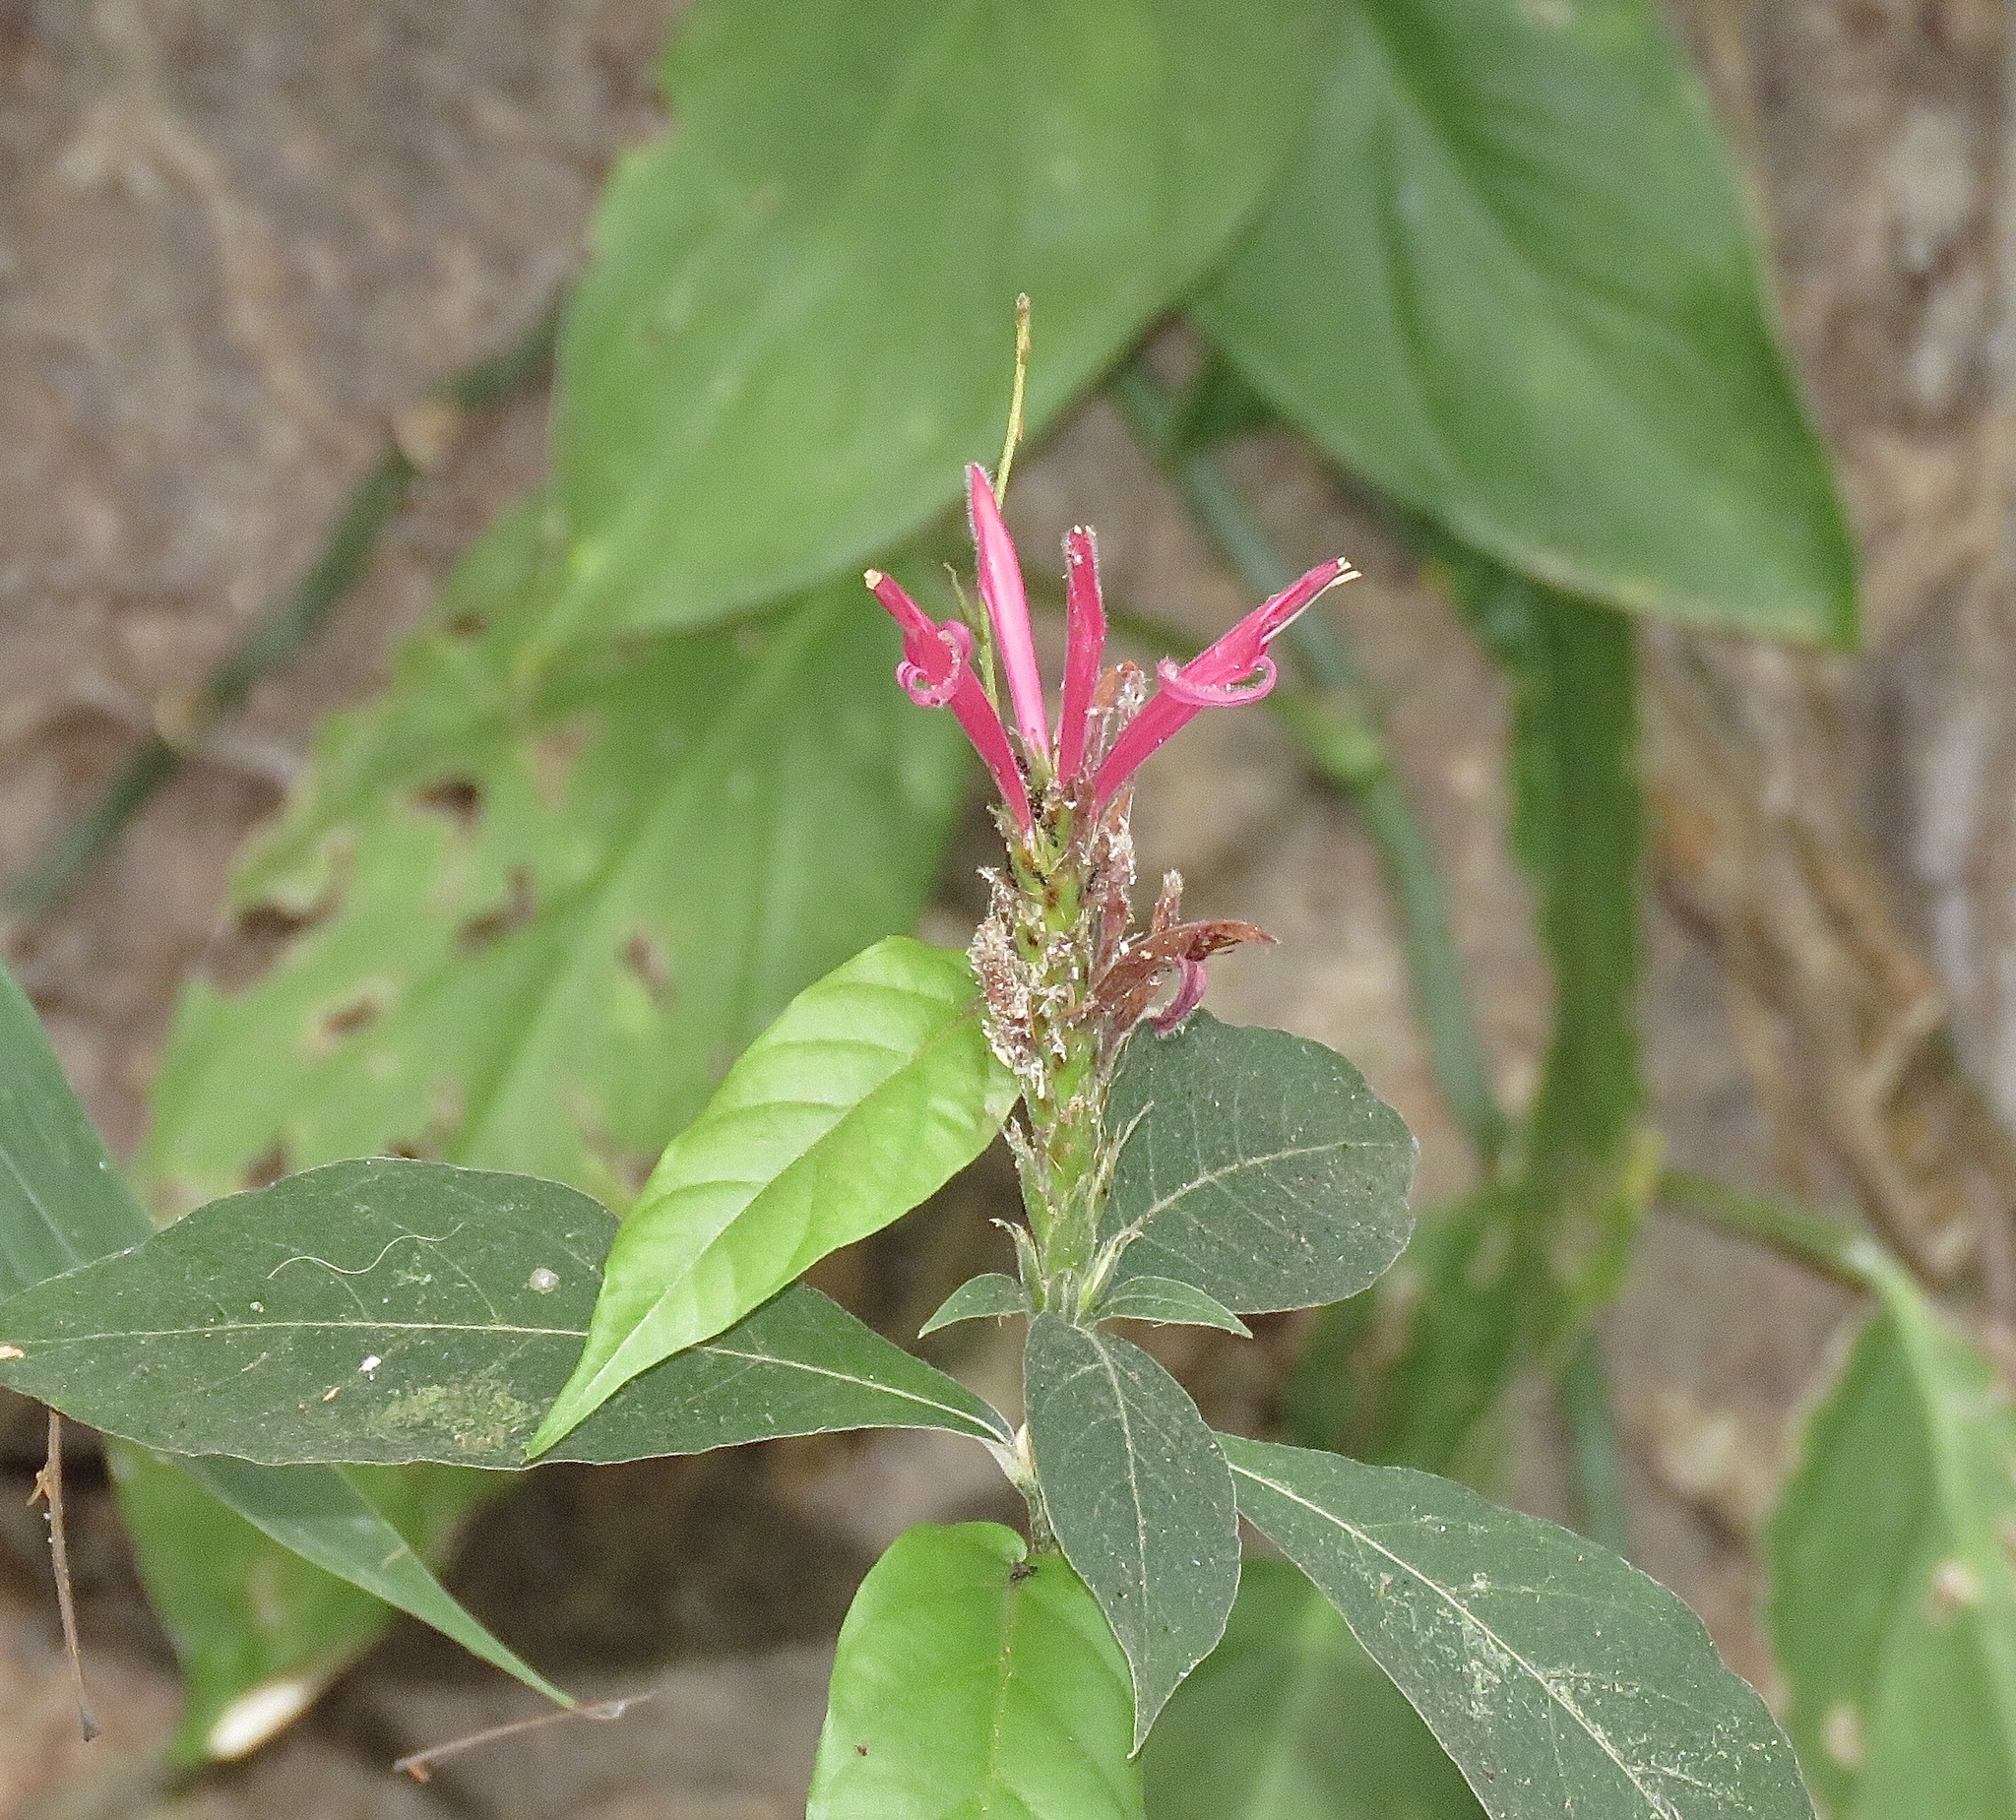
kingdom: Plantae
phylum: Tracheophyta
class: Magnoliopsida
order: Lamiales
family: Acanthaceae
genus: Aphelandra
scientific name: Aphelandra scabra
